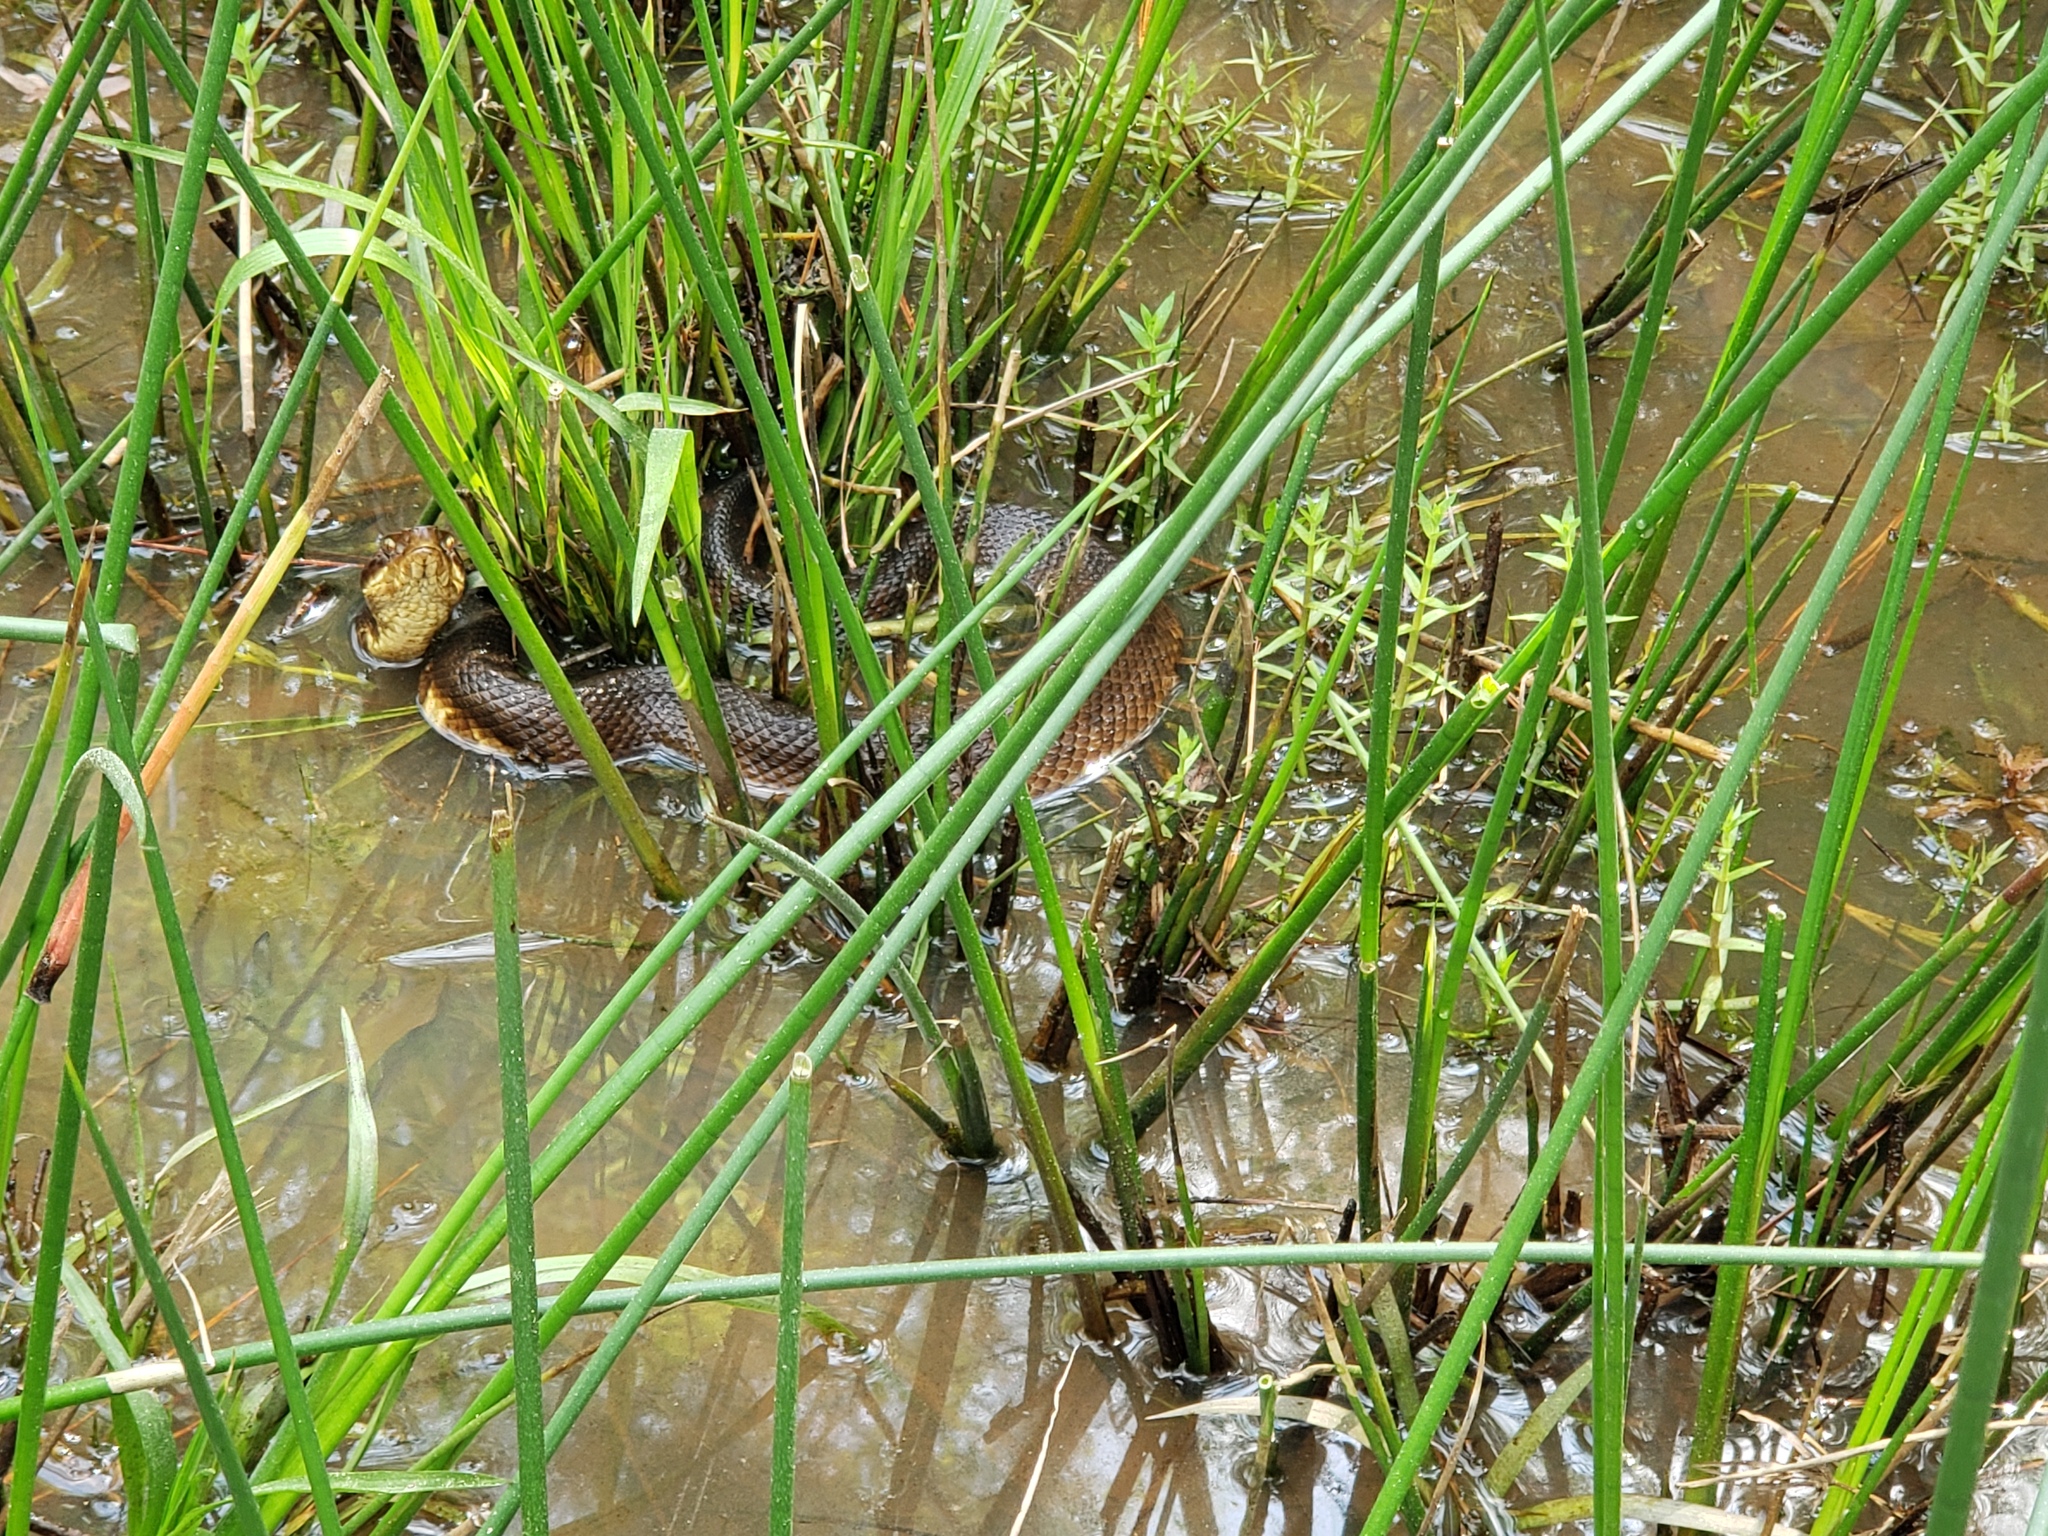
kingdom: Animalia
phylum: Chordata
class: Squamata
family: Viperidae
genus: Agkistrodon
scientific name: Agkistrodon piscivorus
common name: Cottonmouth
